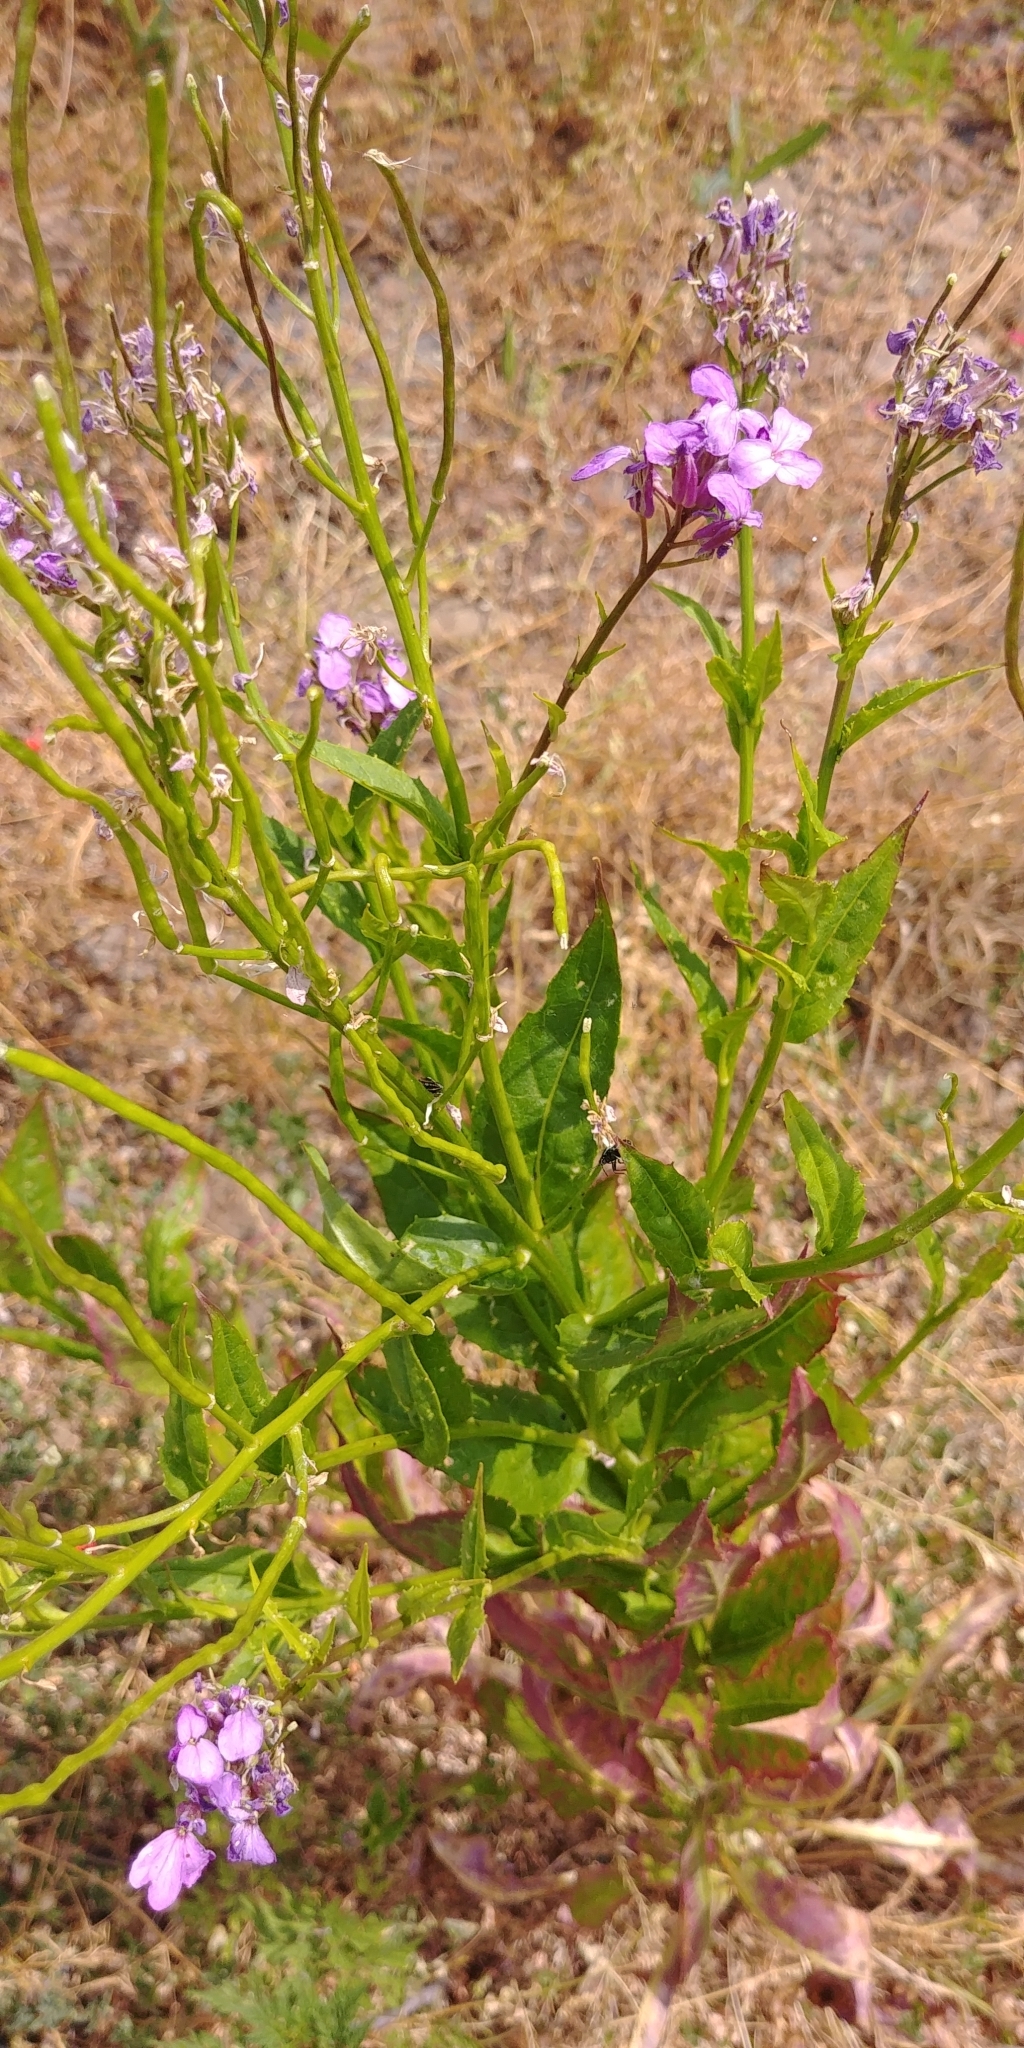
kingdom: Plantae
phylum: Tracheophyta
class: Magnoliopsida
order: Brassicales
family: Brassicaceae
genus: Hesperis
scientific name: Hesperis matronalis
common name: Dame's-violet
